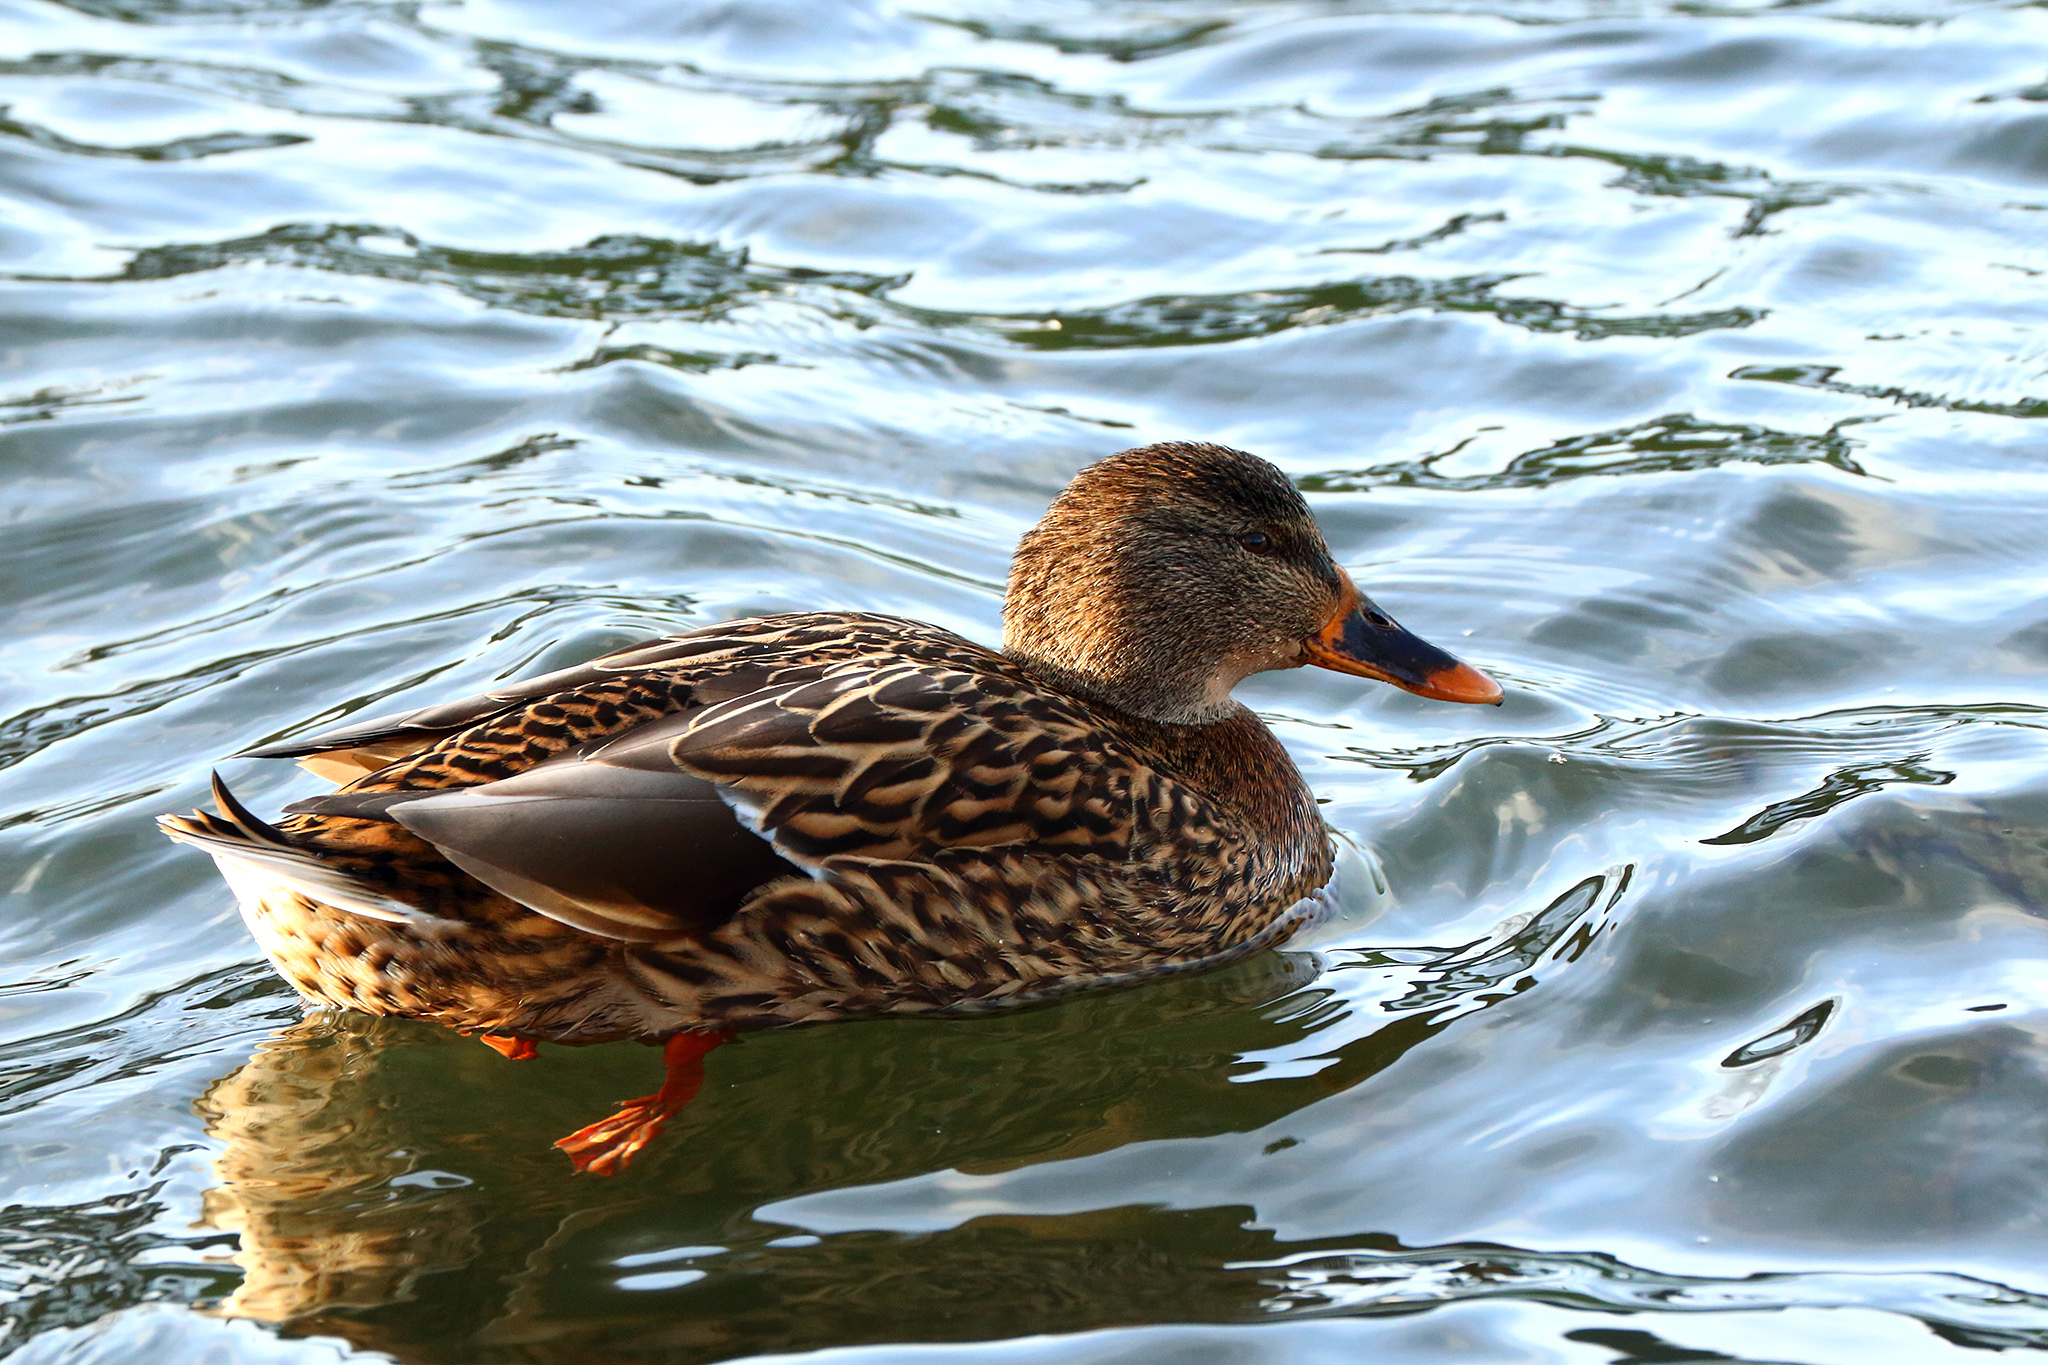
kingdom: Animalia
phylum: Chordata
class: Aves
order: Anseriformes
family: Anatidae
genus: Anas
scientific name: Anas platyrhynchos
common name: Mallard
